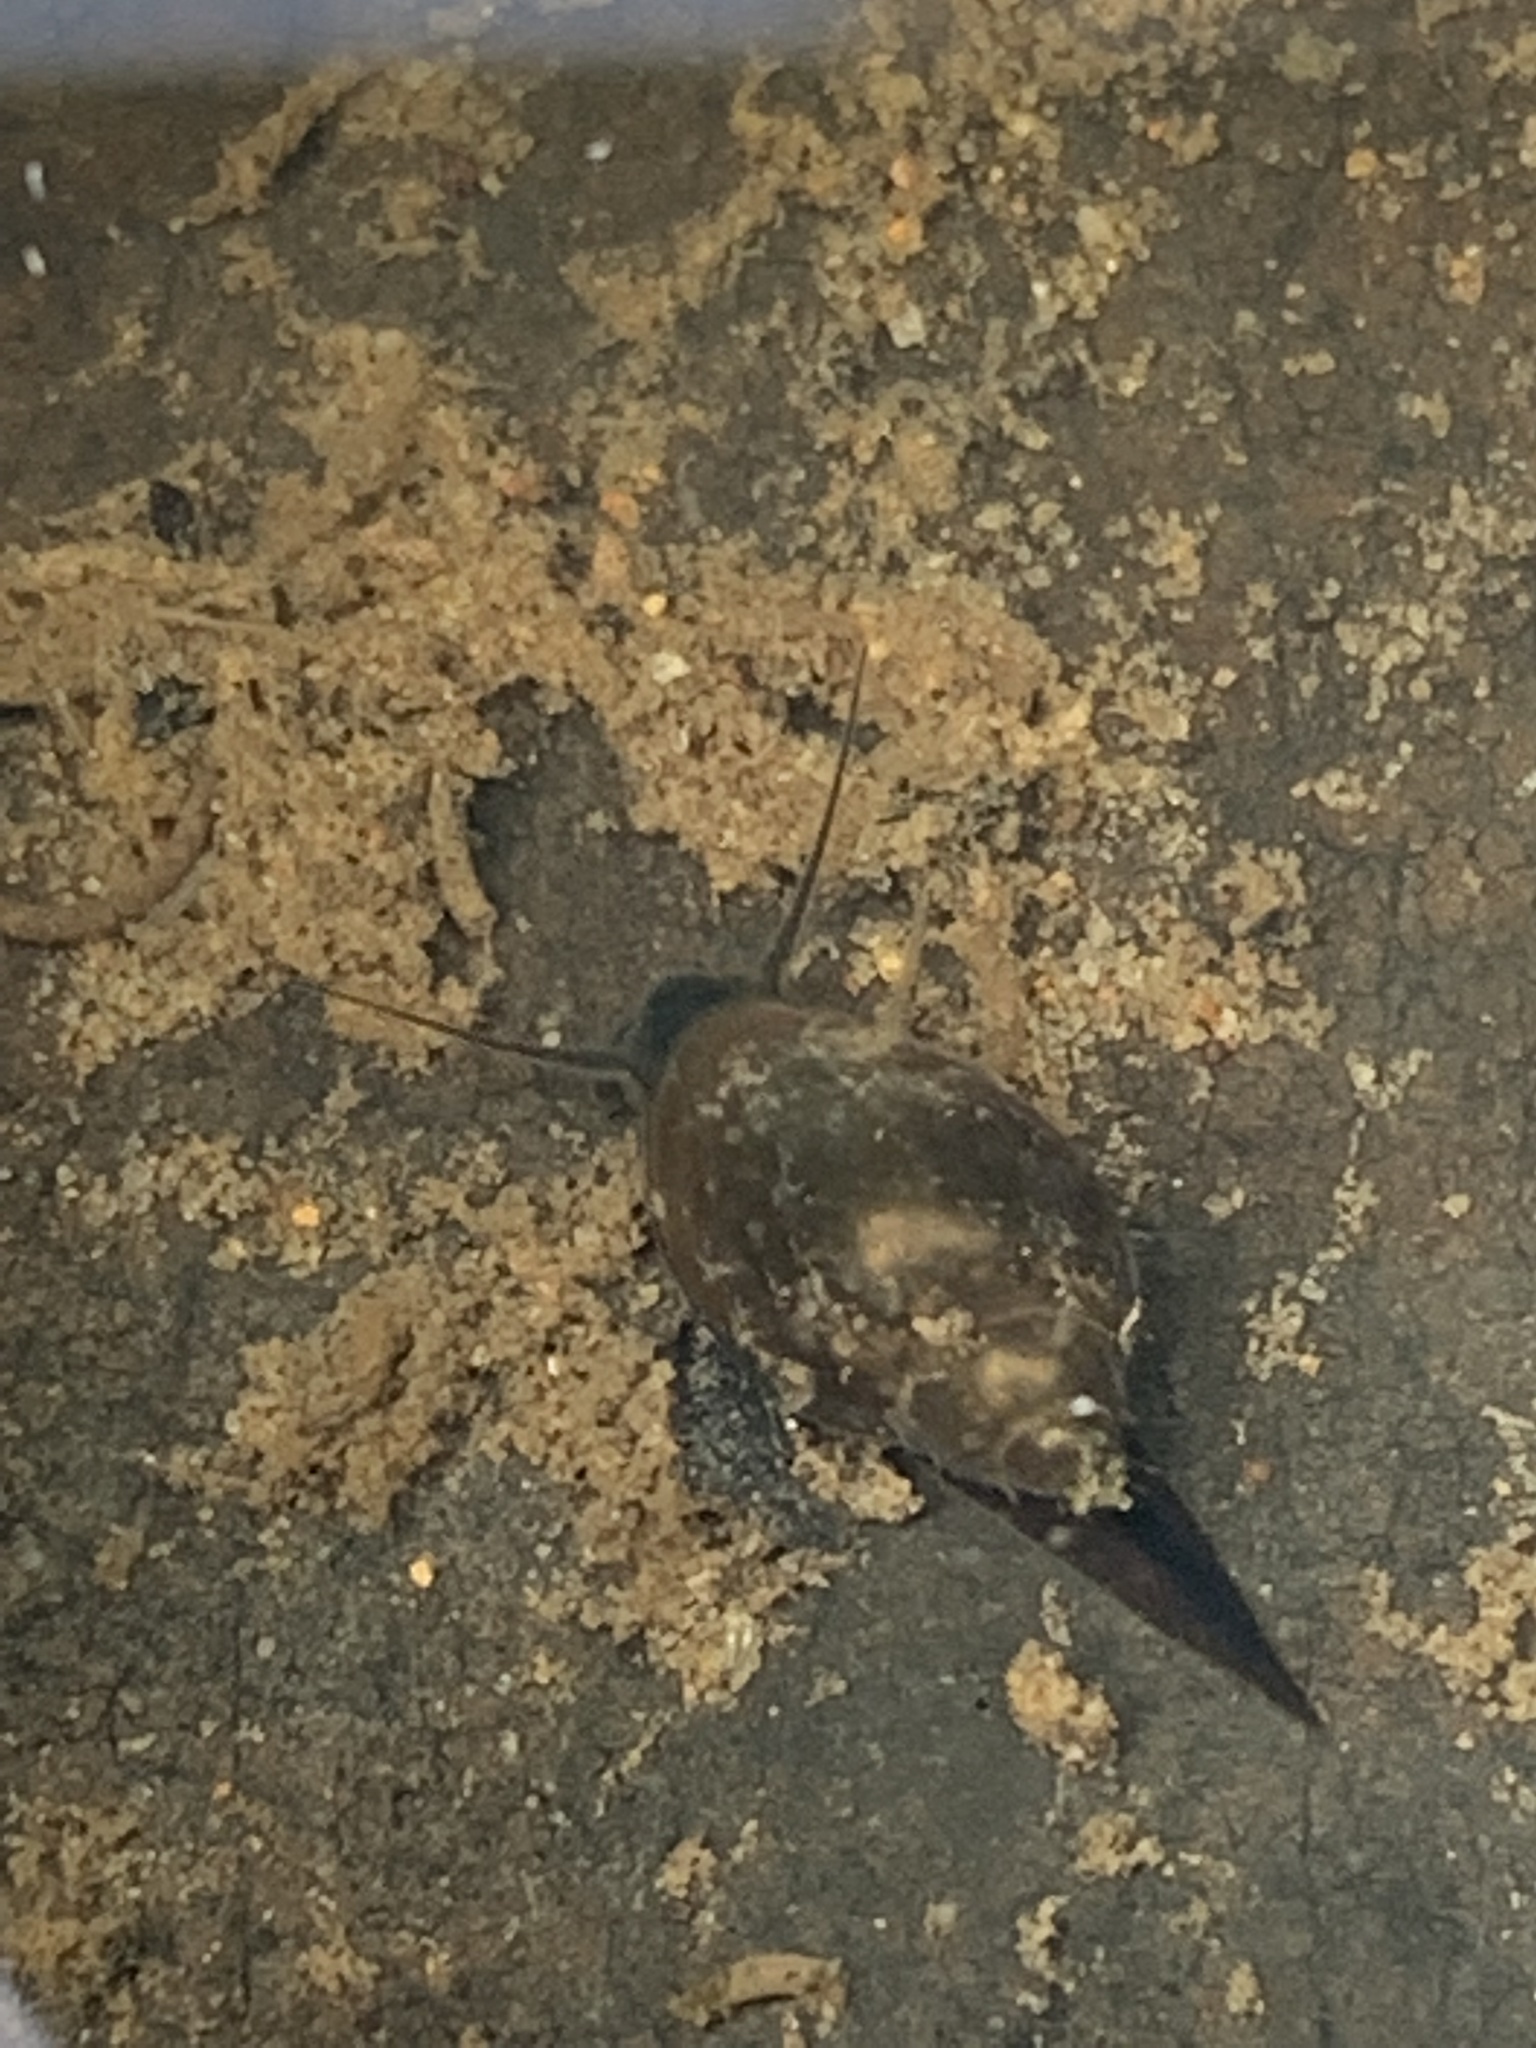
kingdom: Animalia
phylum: Mollusca
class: Gastropoda
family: Physidae
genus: Physella
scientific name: Physella acuta
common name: European physa
